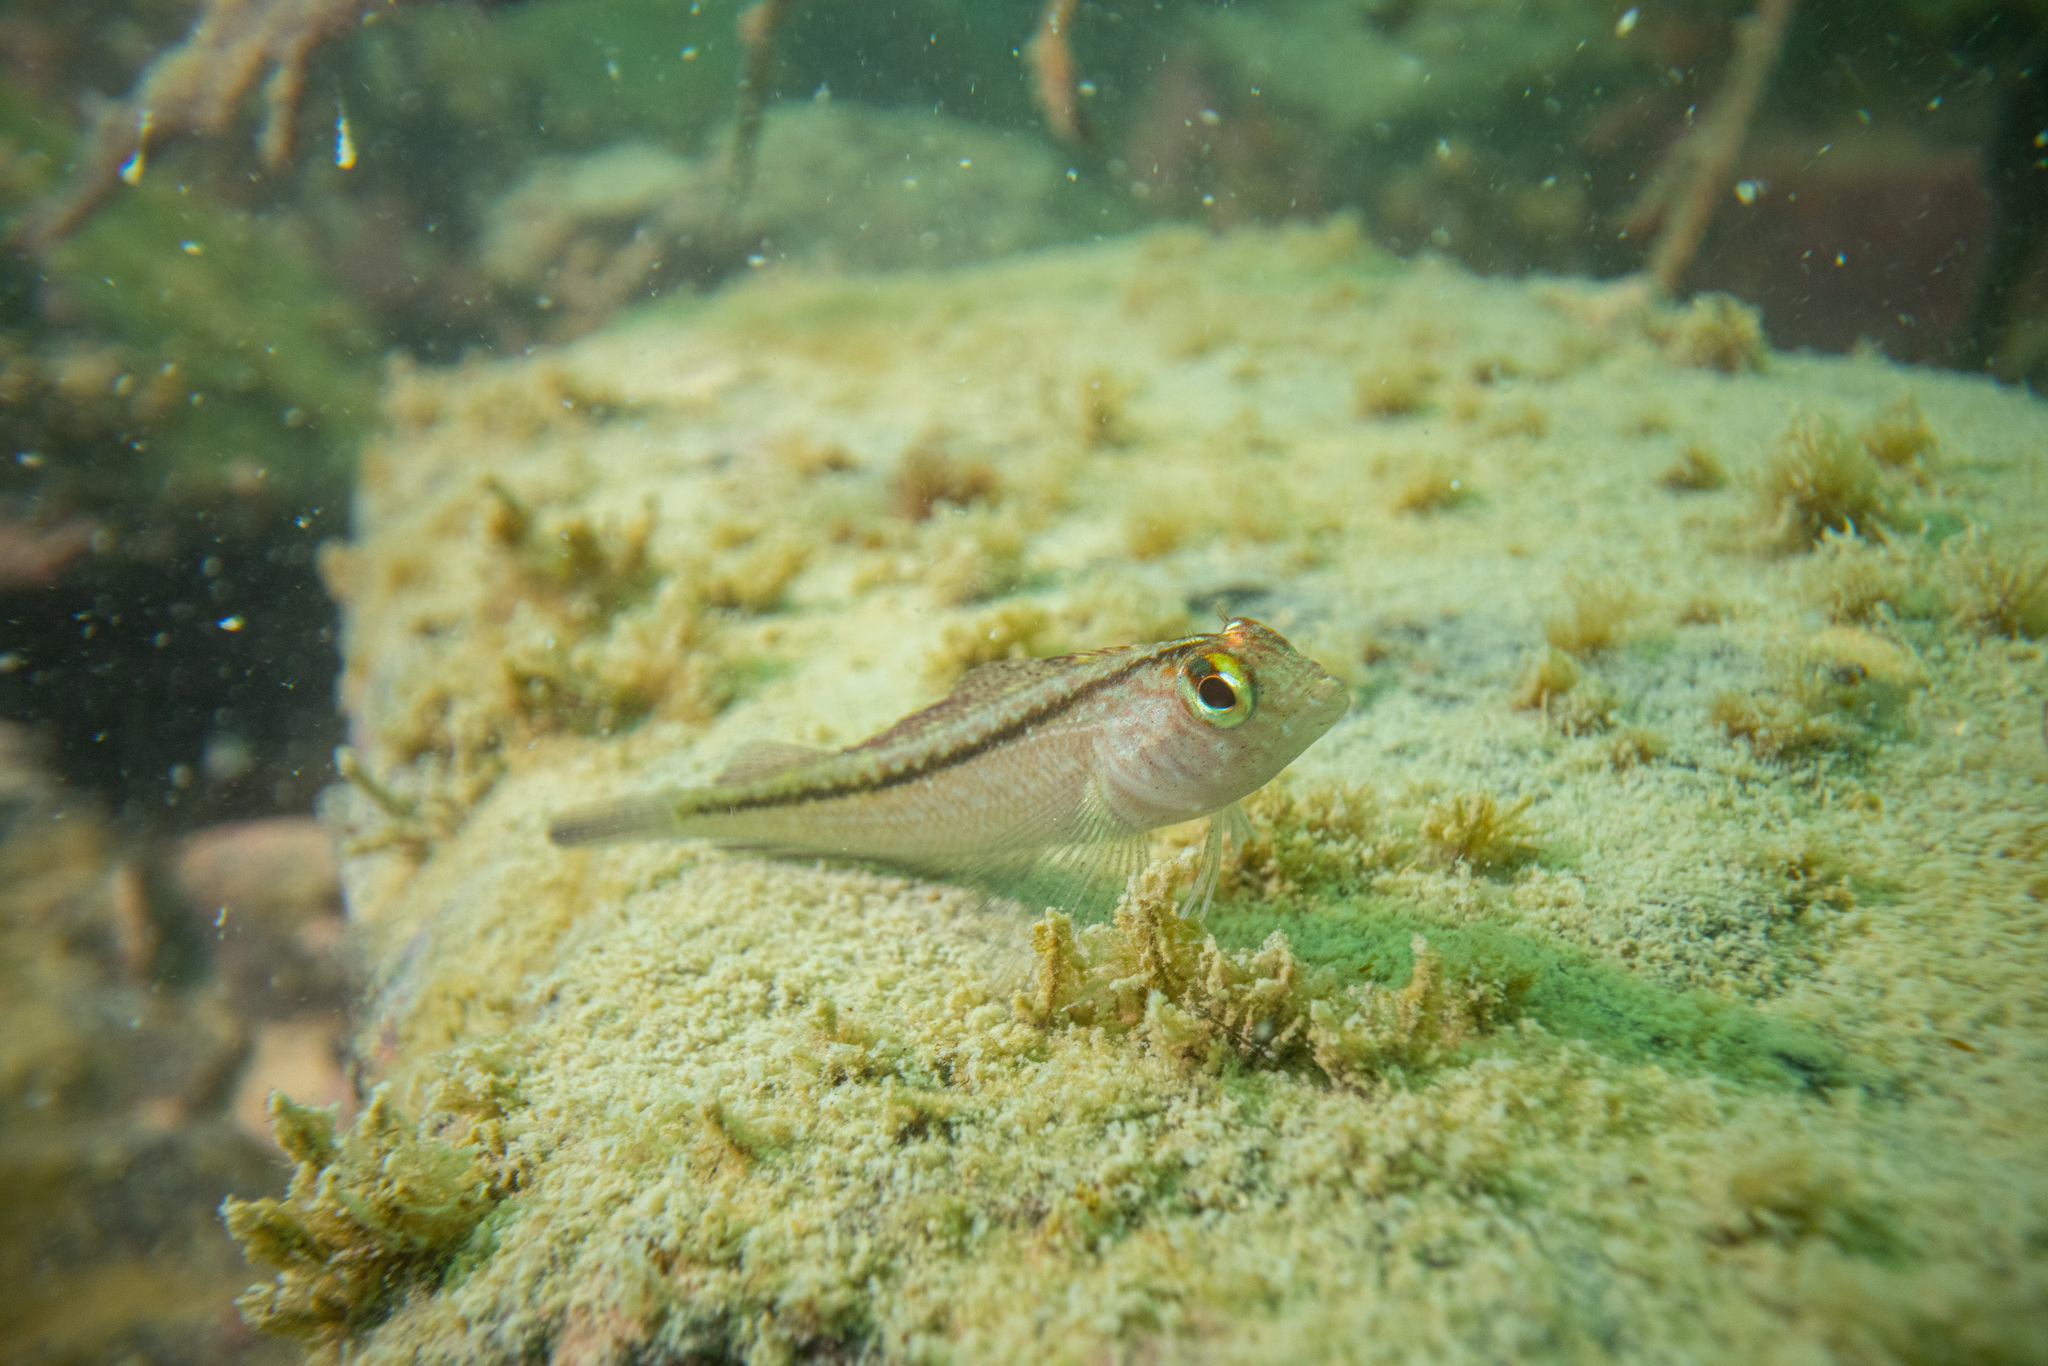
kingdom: Animalia
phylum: Chordata
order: Perciformes
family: Tripterygiidae
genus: Forsterygion
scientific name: Forsterygion lapillum
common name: Common triplefin
